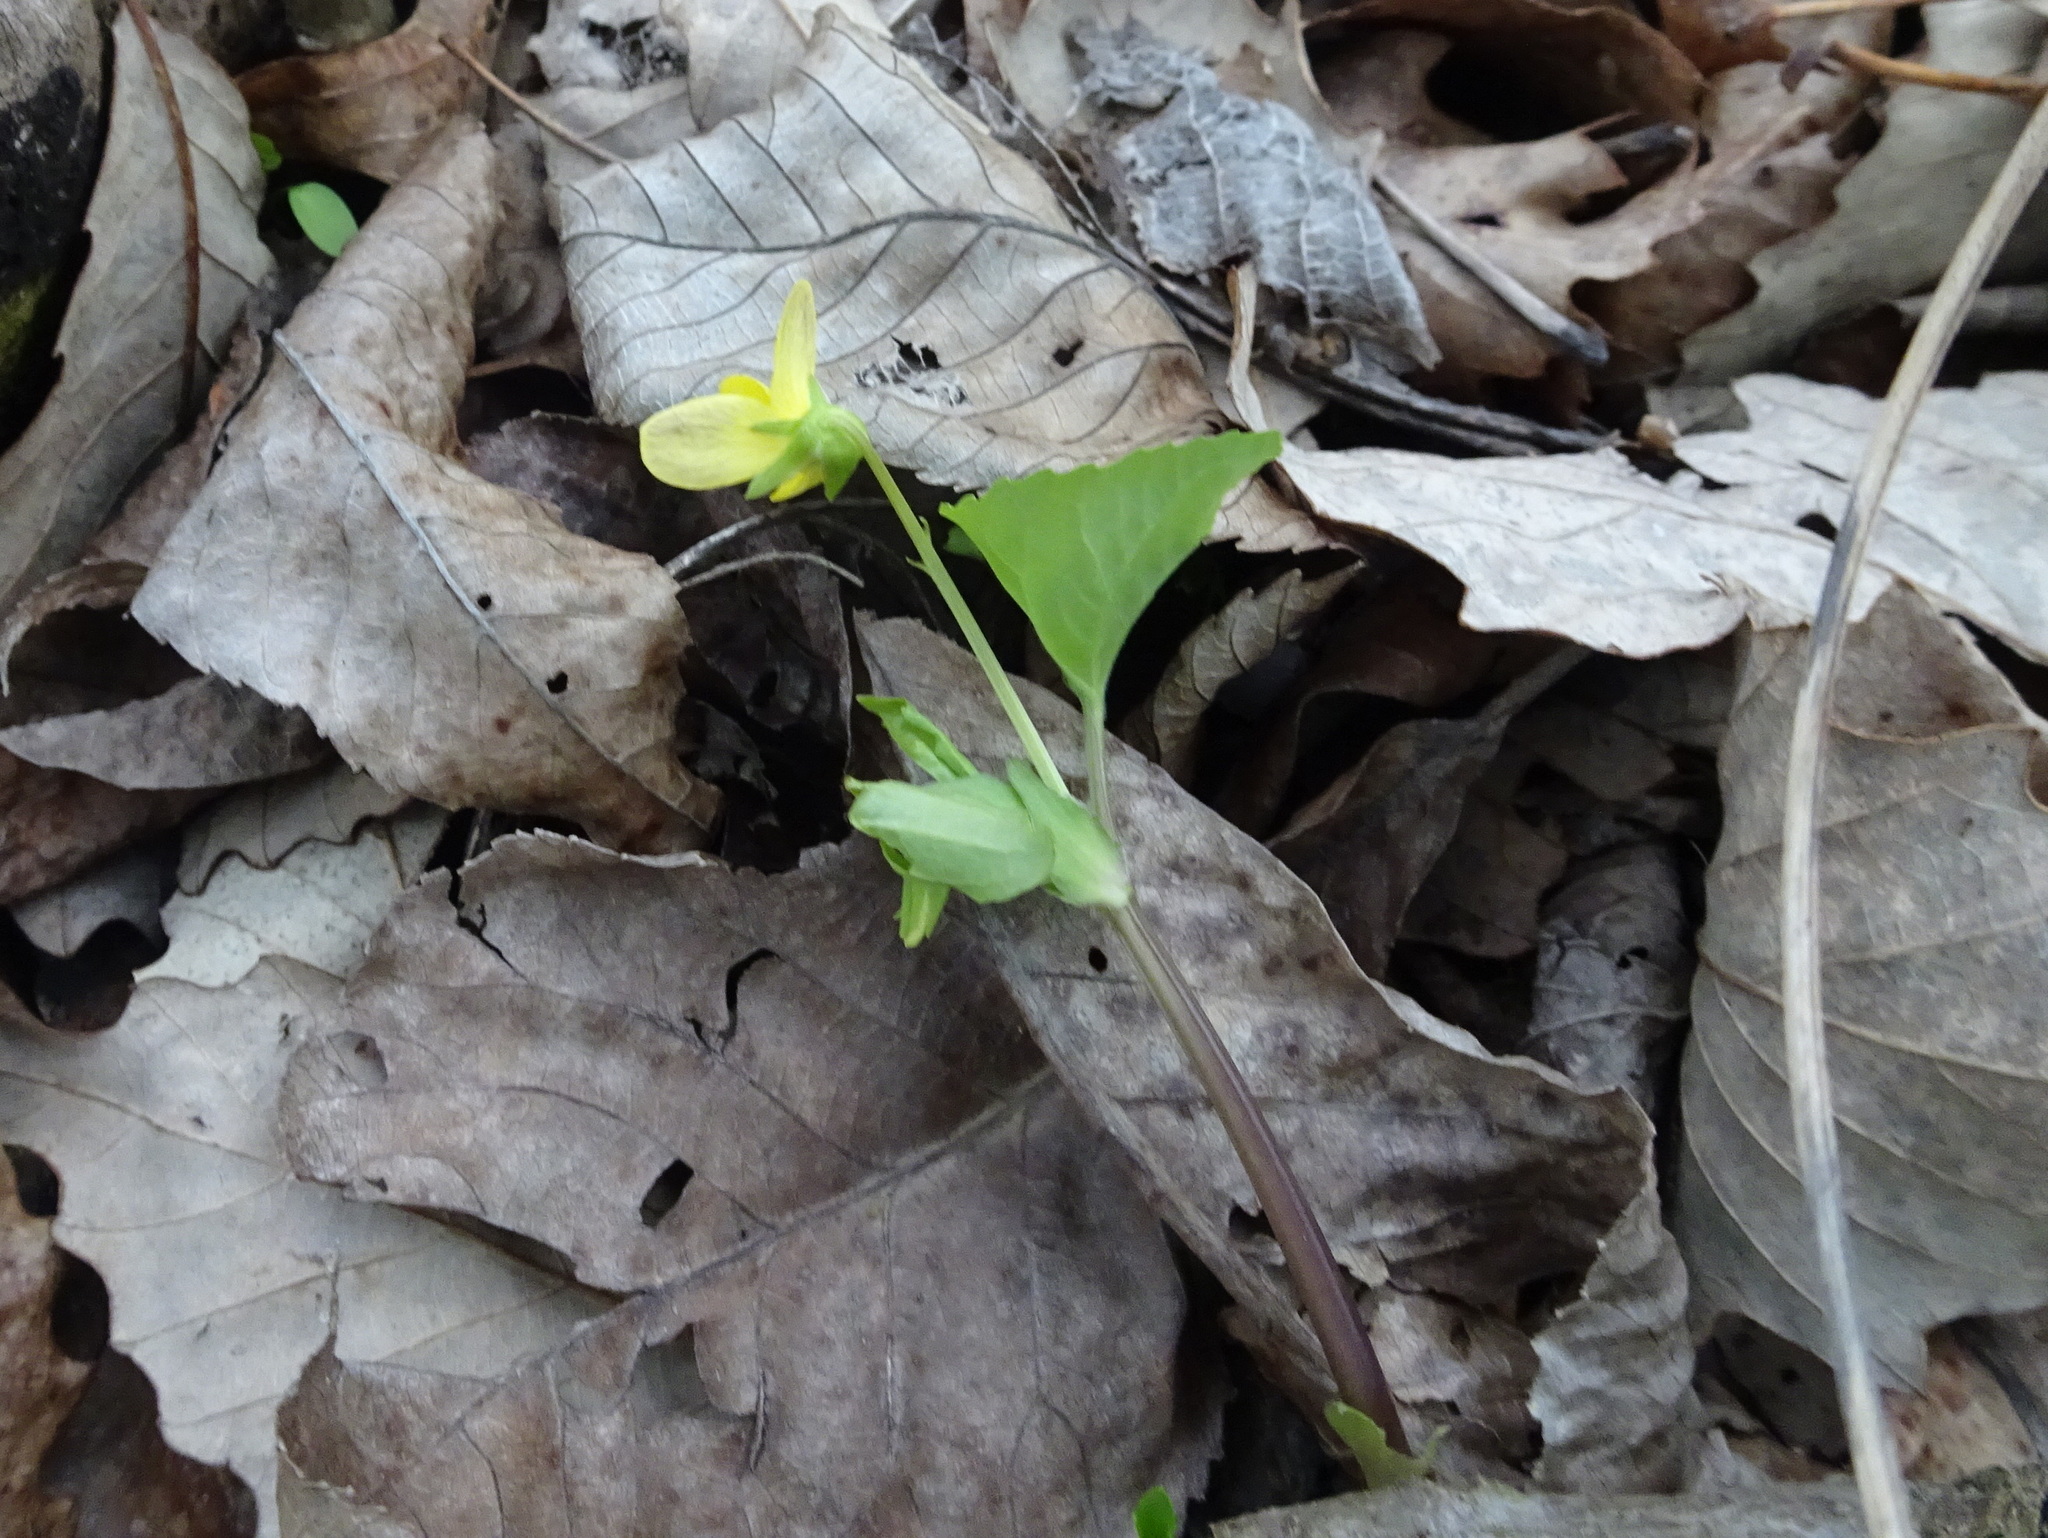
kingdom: Plantae
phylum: Tracheophyta
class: Magnoliopsida
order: Malpighiales
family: Violaceae
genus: Viola
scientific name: Viola eriocarpa
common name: Smooth yellow violet
